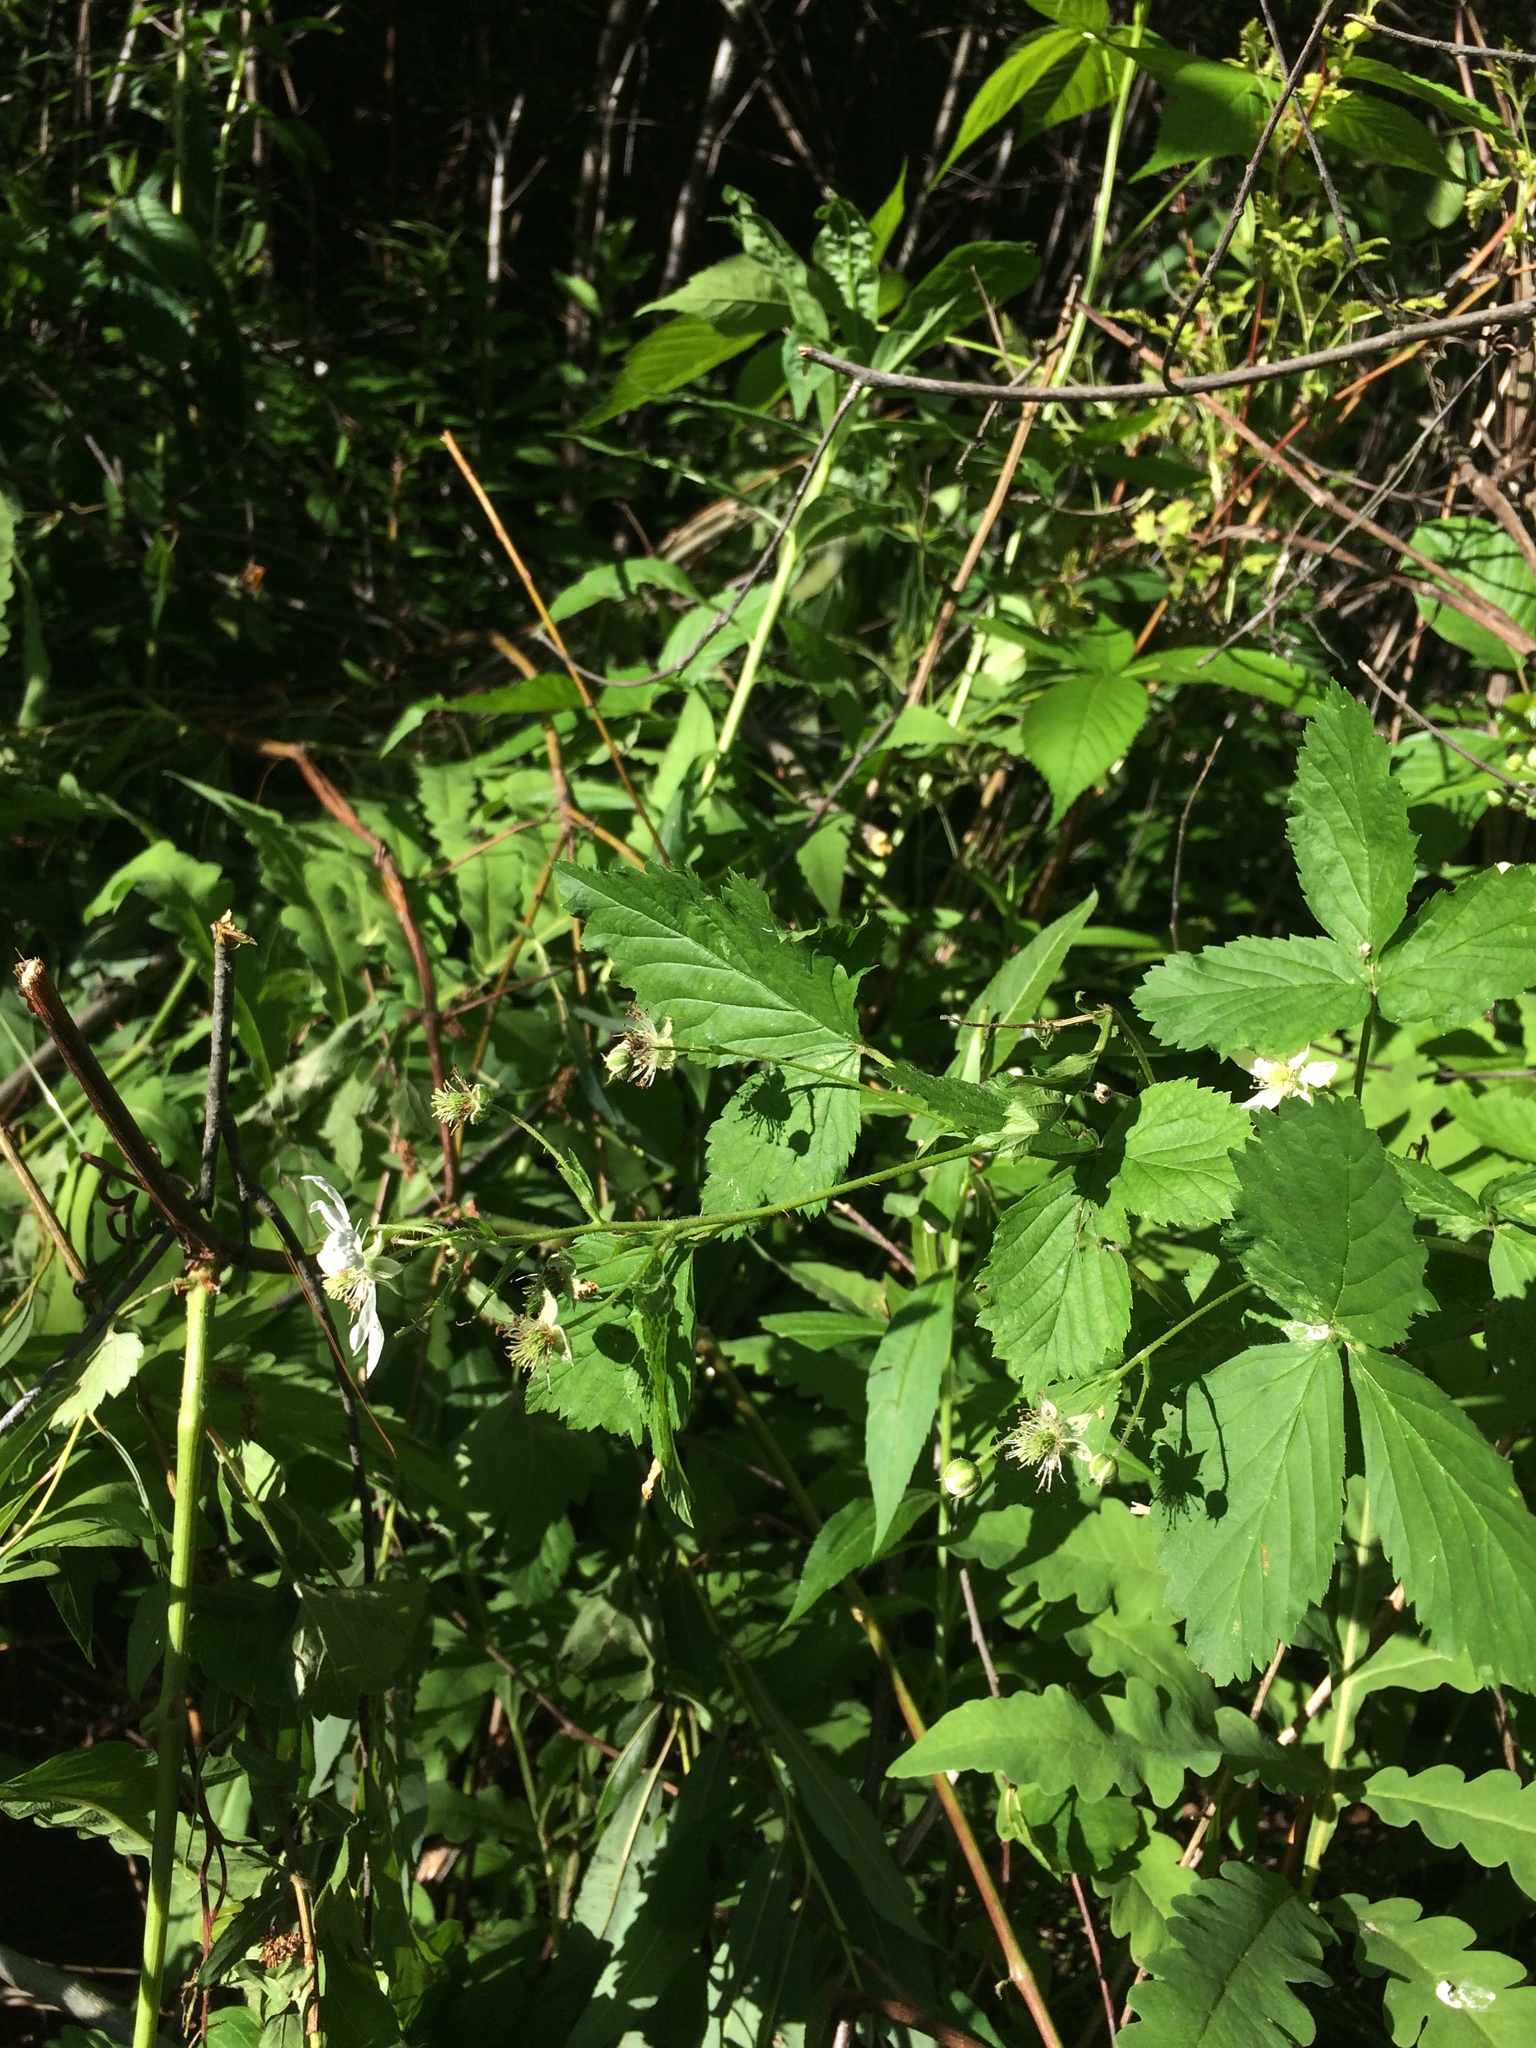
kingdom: Plantae
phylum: Tracheophyta
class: Magnoliopsida
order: Rosales
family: Rosaceae
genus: Rubus
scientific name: Rubus setosus
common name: Bristly blackberry
